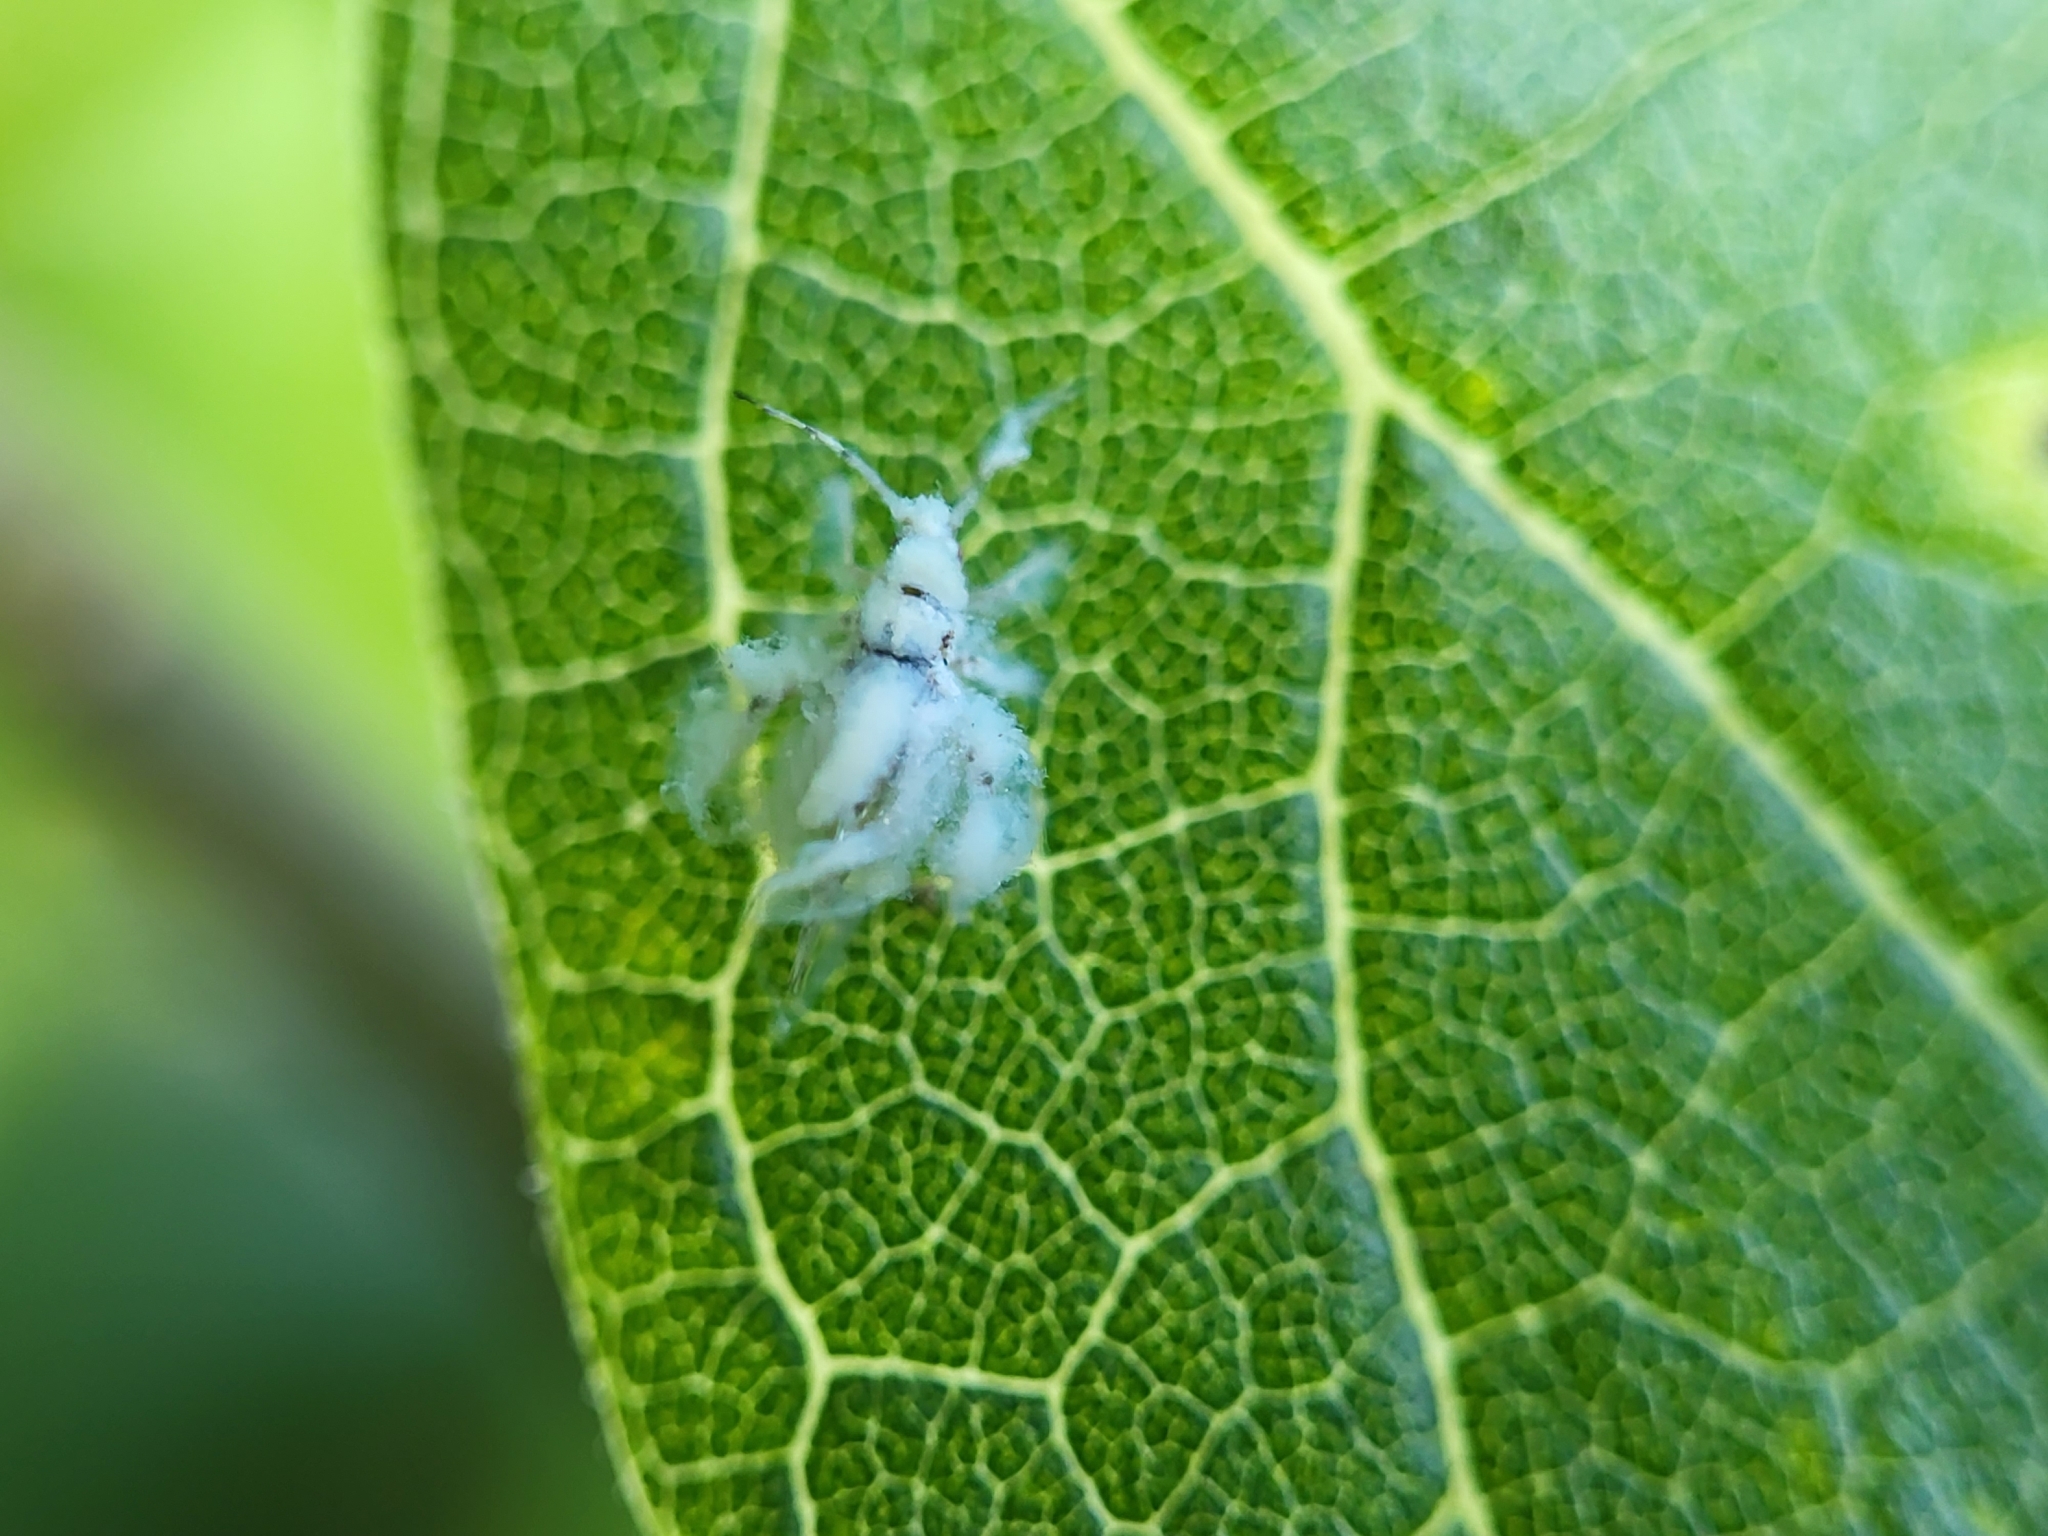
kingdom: Animalia
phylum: Arthropoda
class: Insecta
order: Hemiptera
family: Aphididae
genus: Shivaphis
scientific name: Shivaphis celti
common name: Asian wooly hackberry aphid
